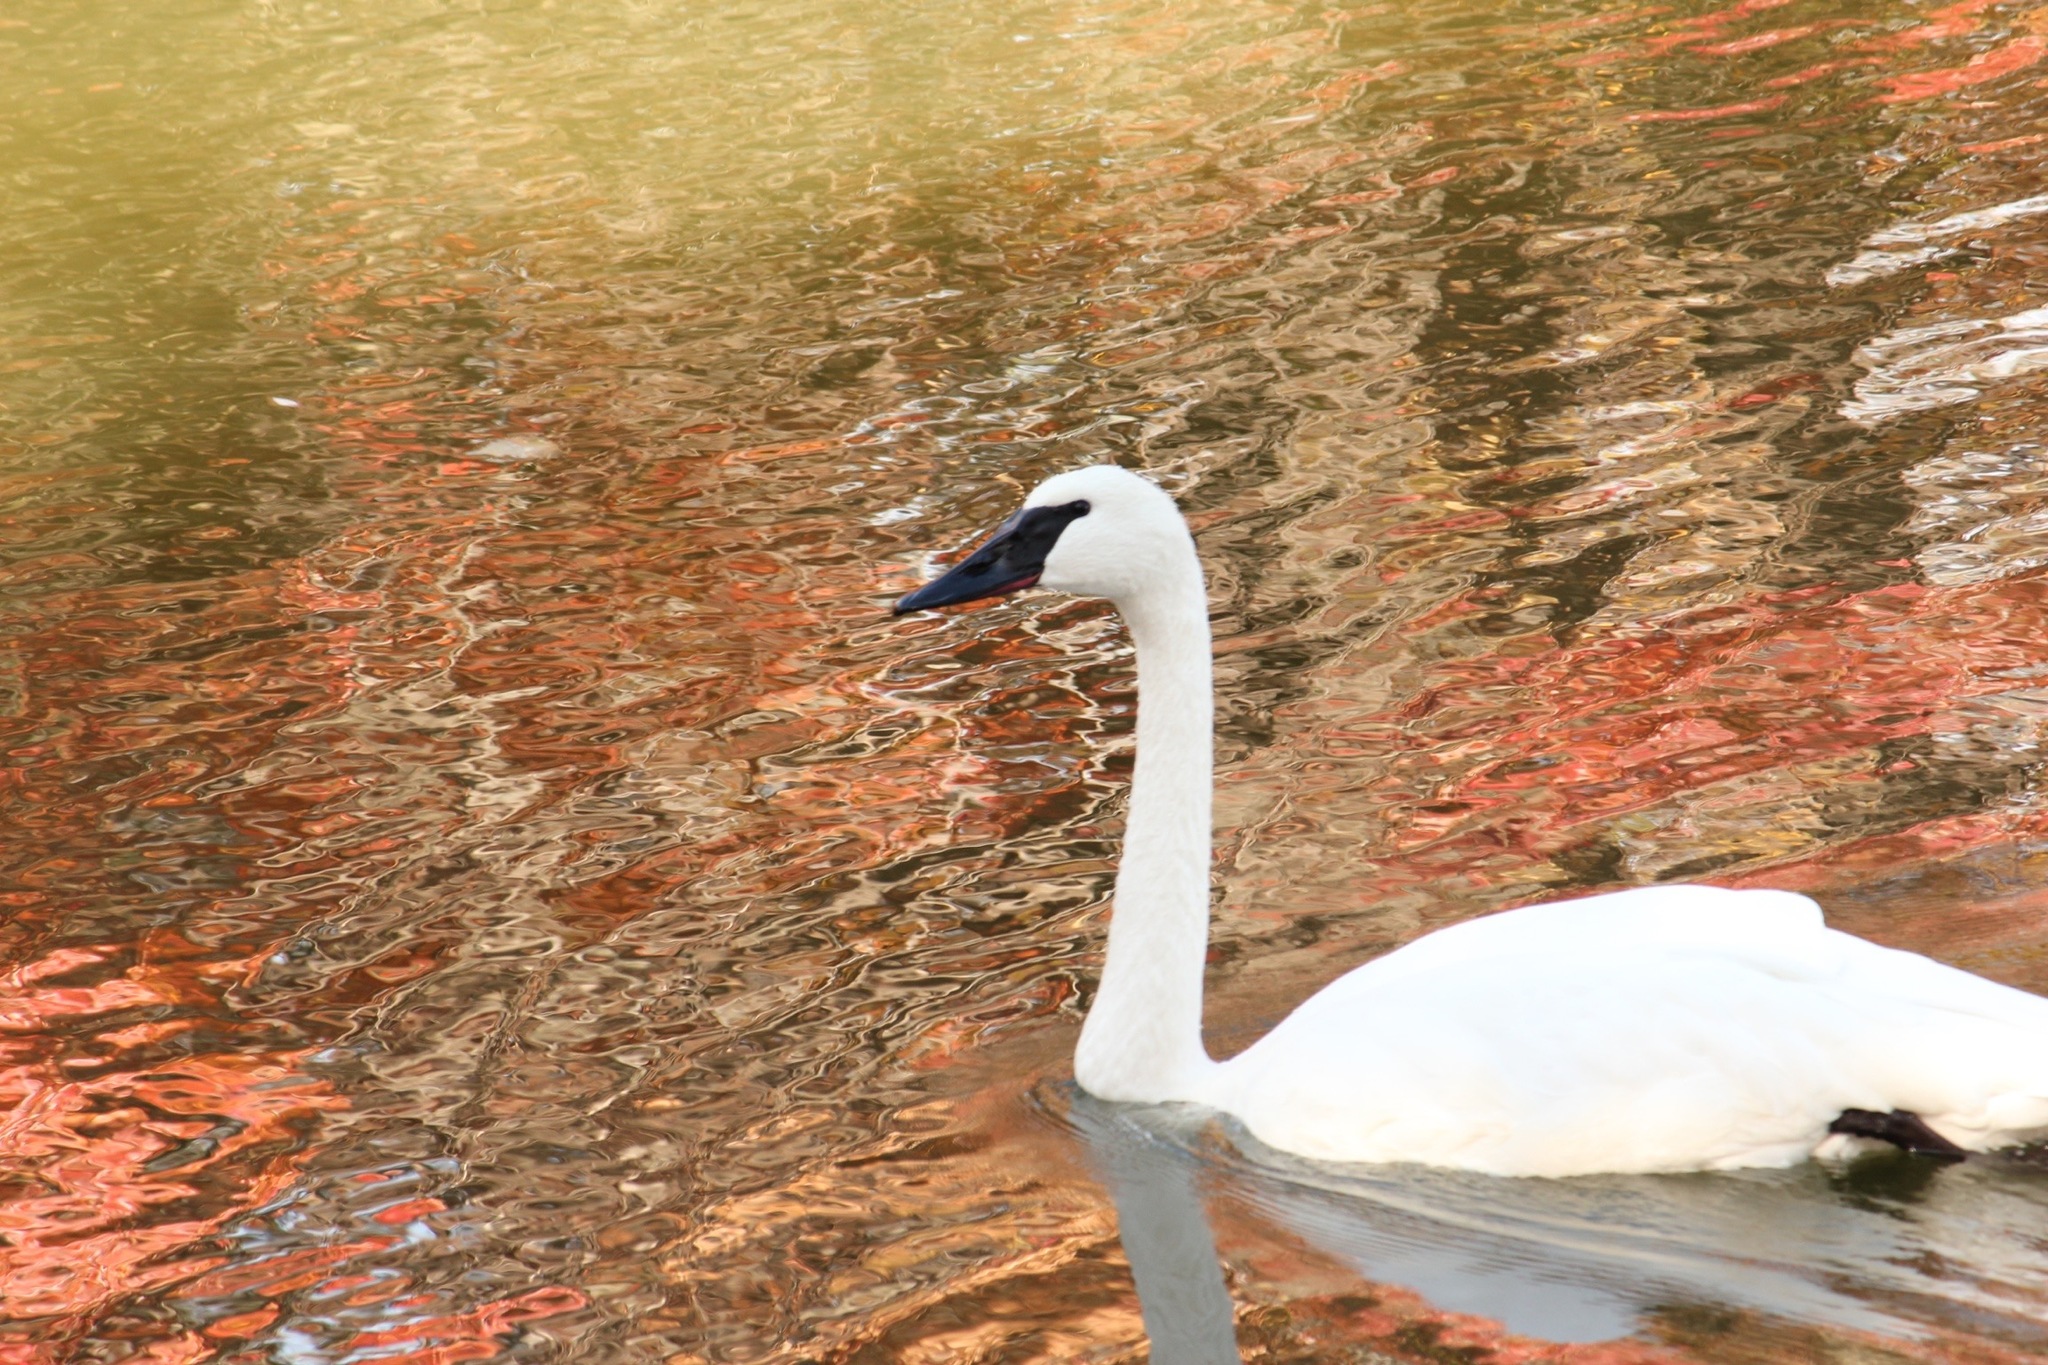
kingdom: Animalia
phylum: Chordata
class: Aves
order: Anseriformes
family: Anatidae
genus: Cygnus
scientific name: Cygnus buccinator
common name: Trumpeter swan
